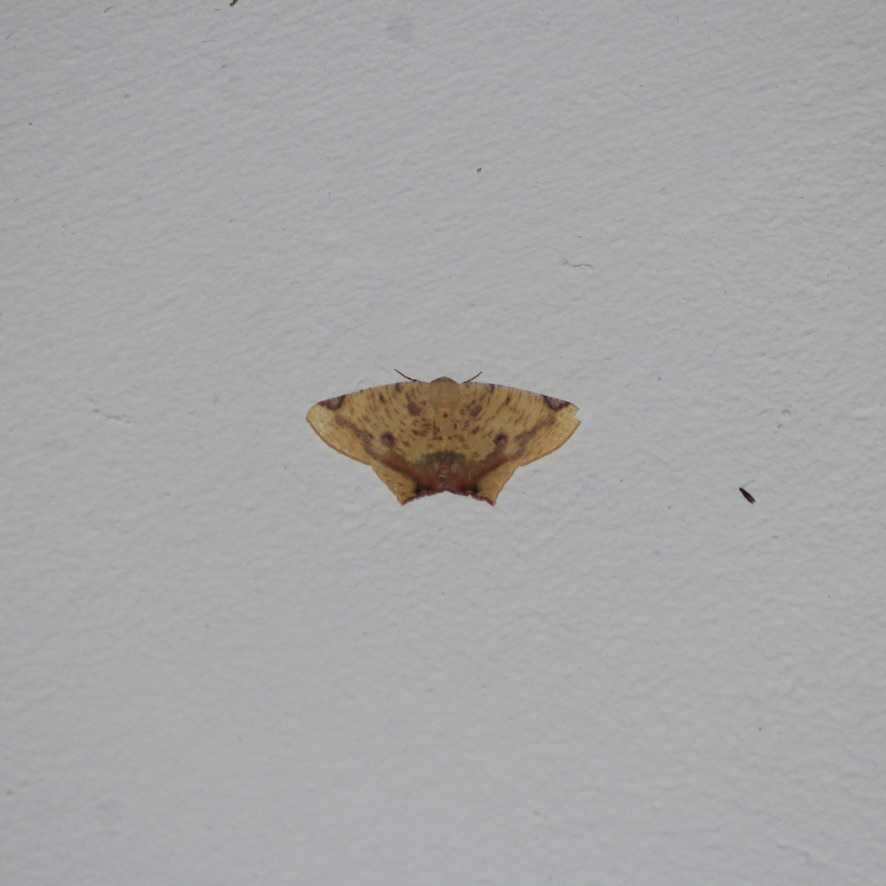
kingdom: Animalia
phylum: Arthropoda
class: Insecta
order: Lepidoptera
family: Geometridae
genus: Nepheloleuca
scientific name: Nepheloleuca politia
